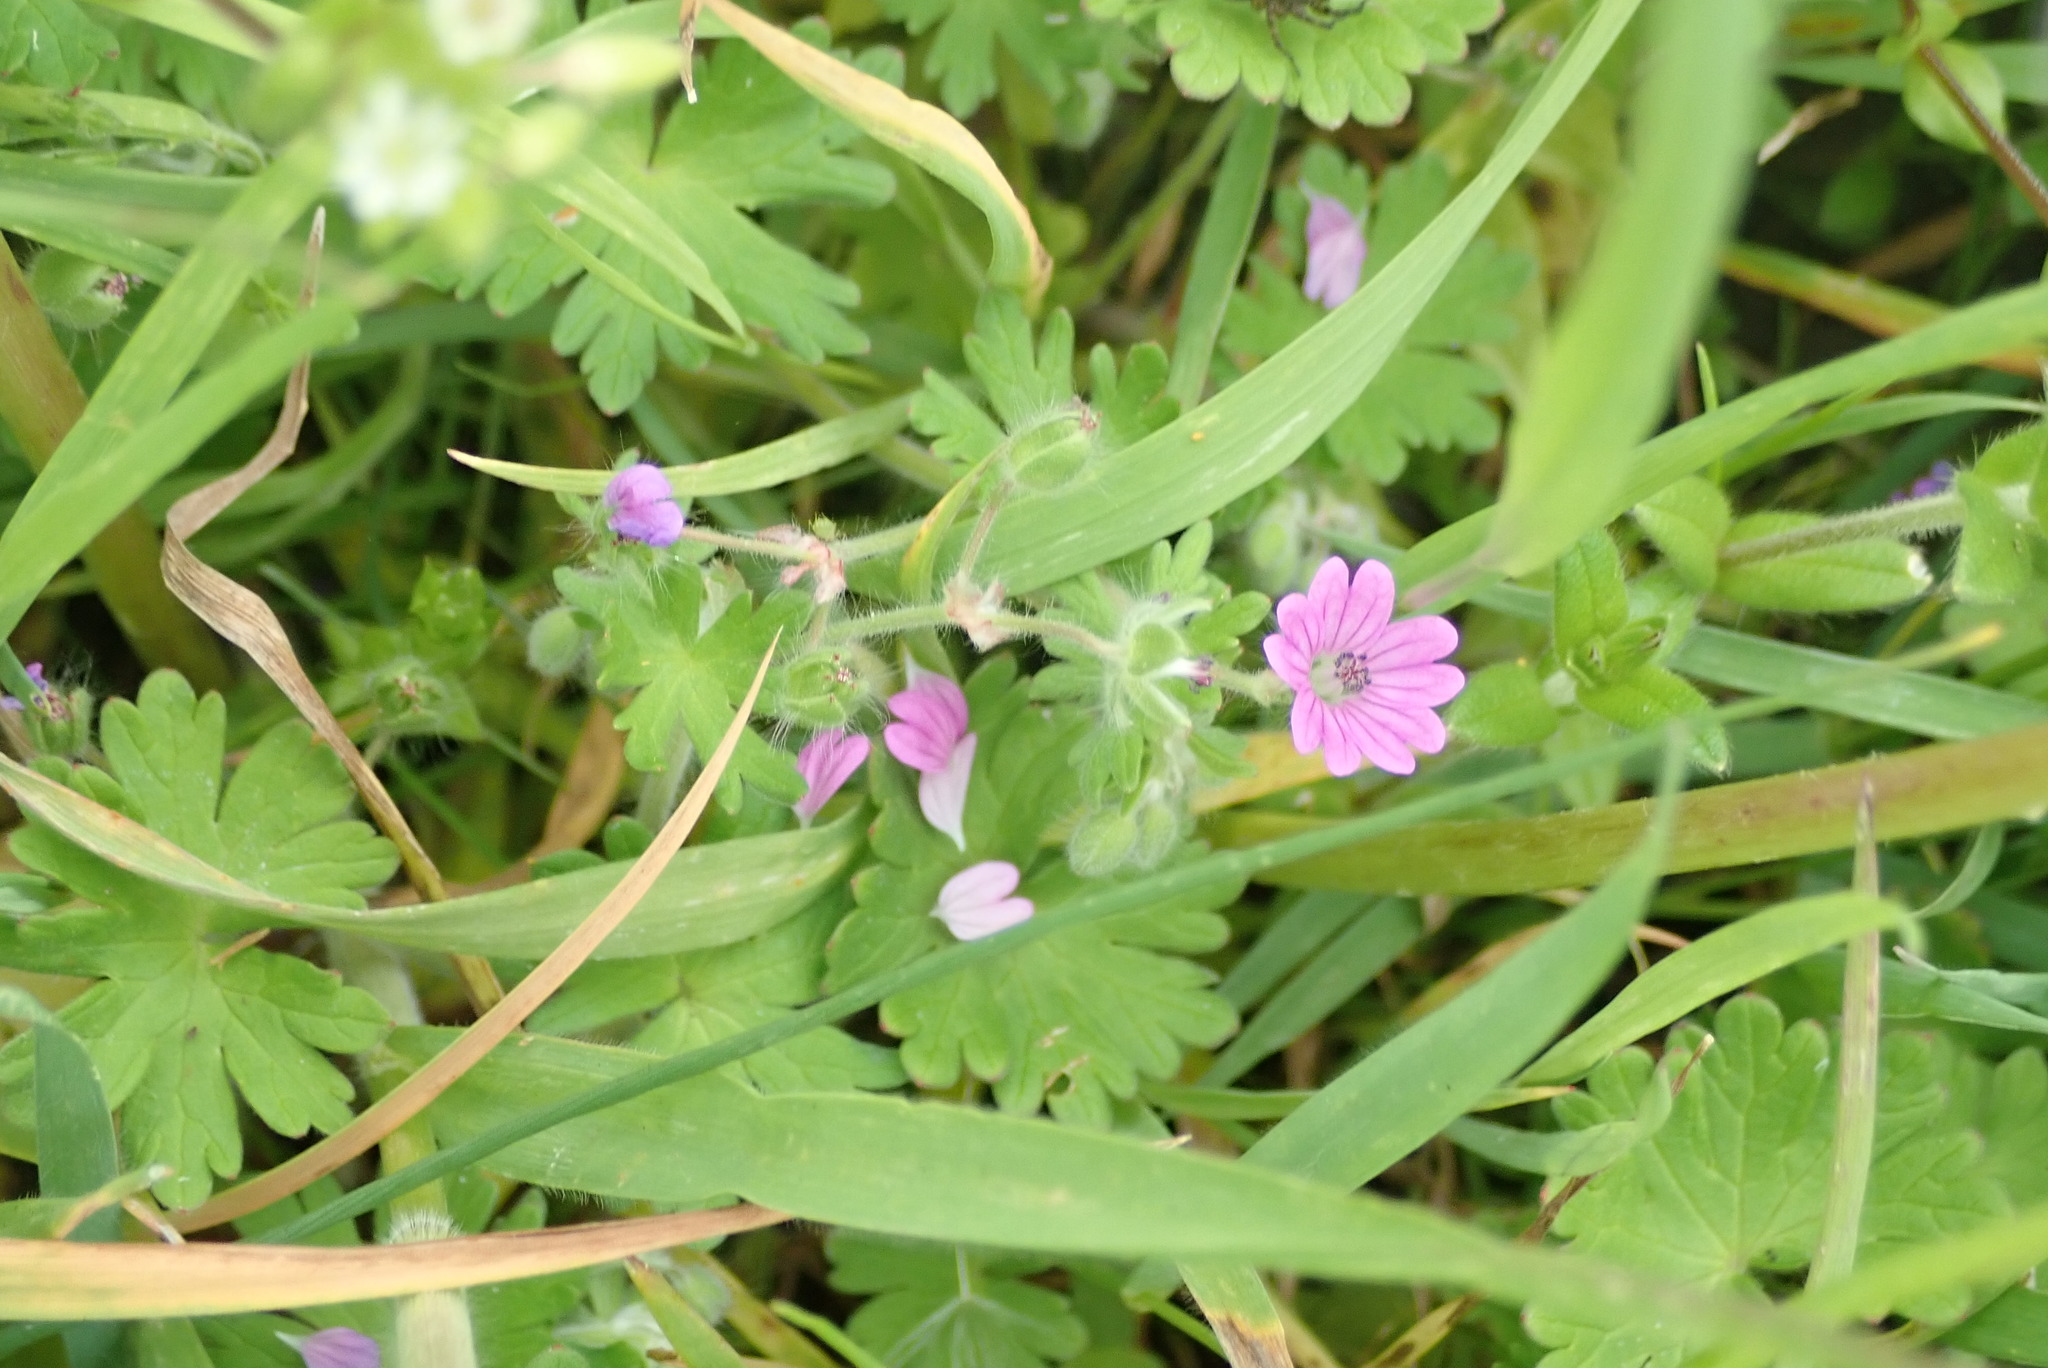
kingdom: Plantae
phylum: Tracheophyta
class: Magnoliopsida
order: Geraniales
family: Geraniaceae
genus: Geranium
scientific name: Geranium molle
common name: Dove's-foot crane's-bill
